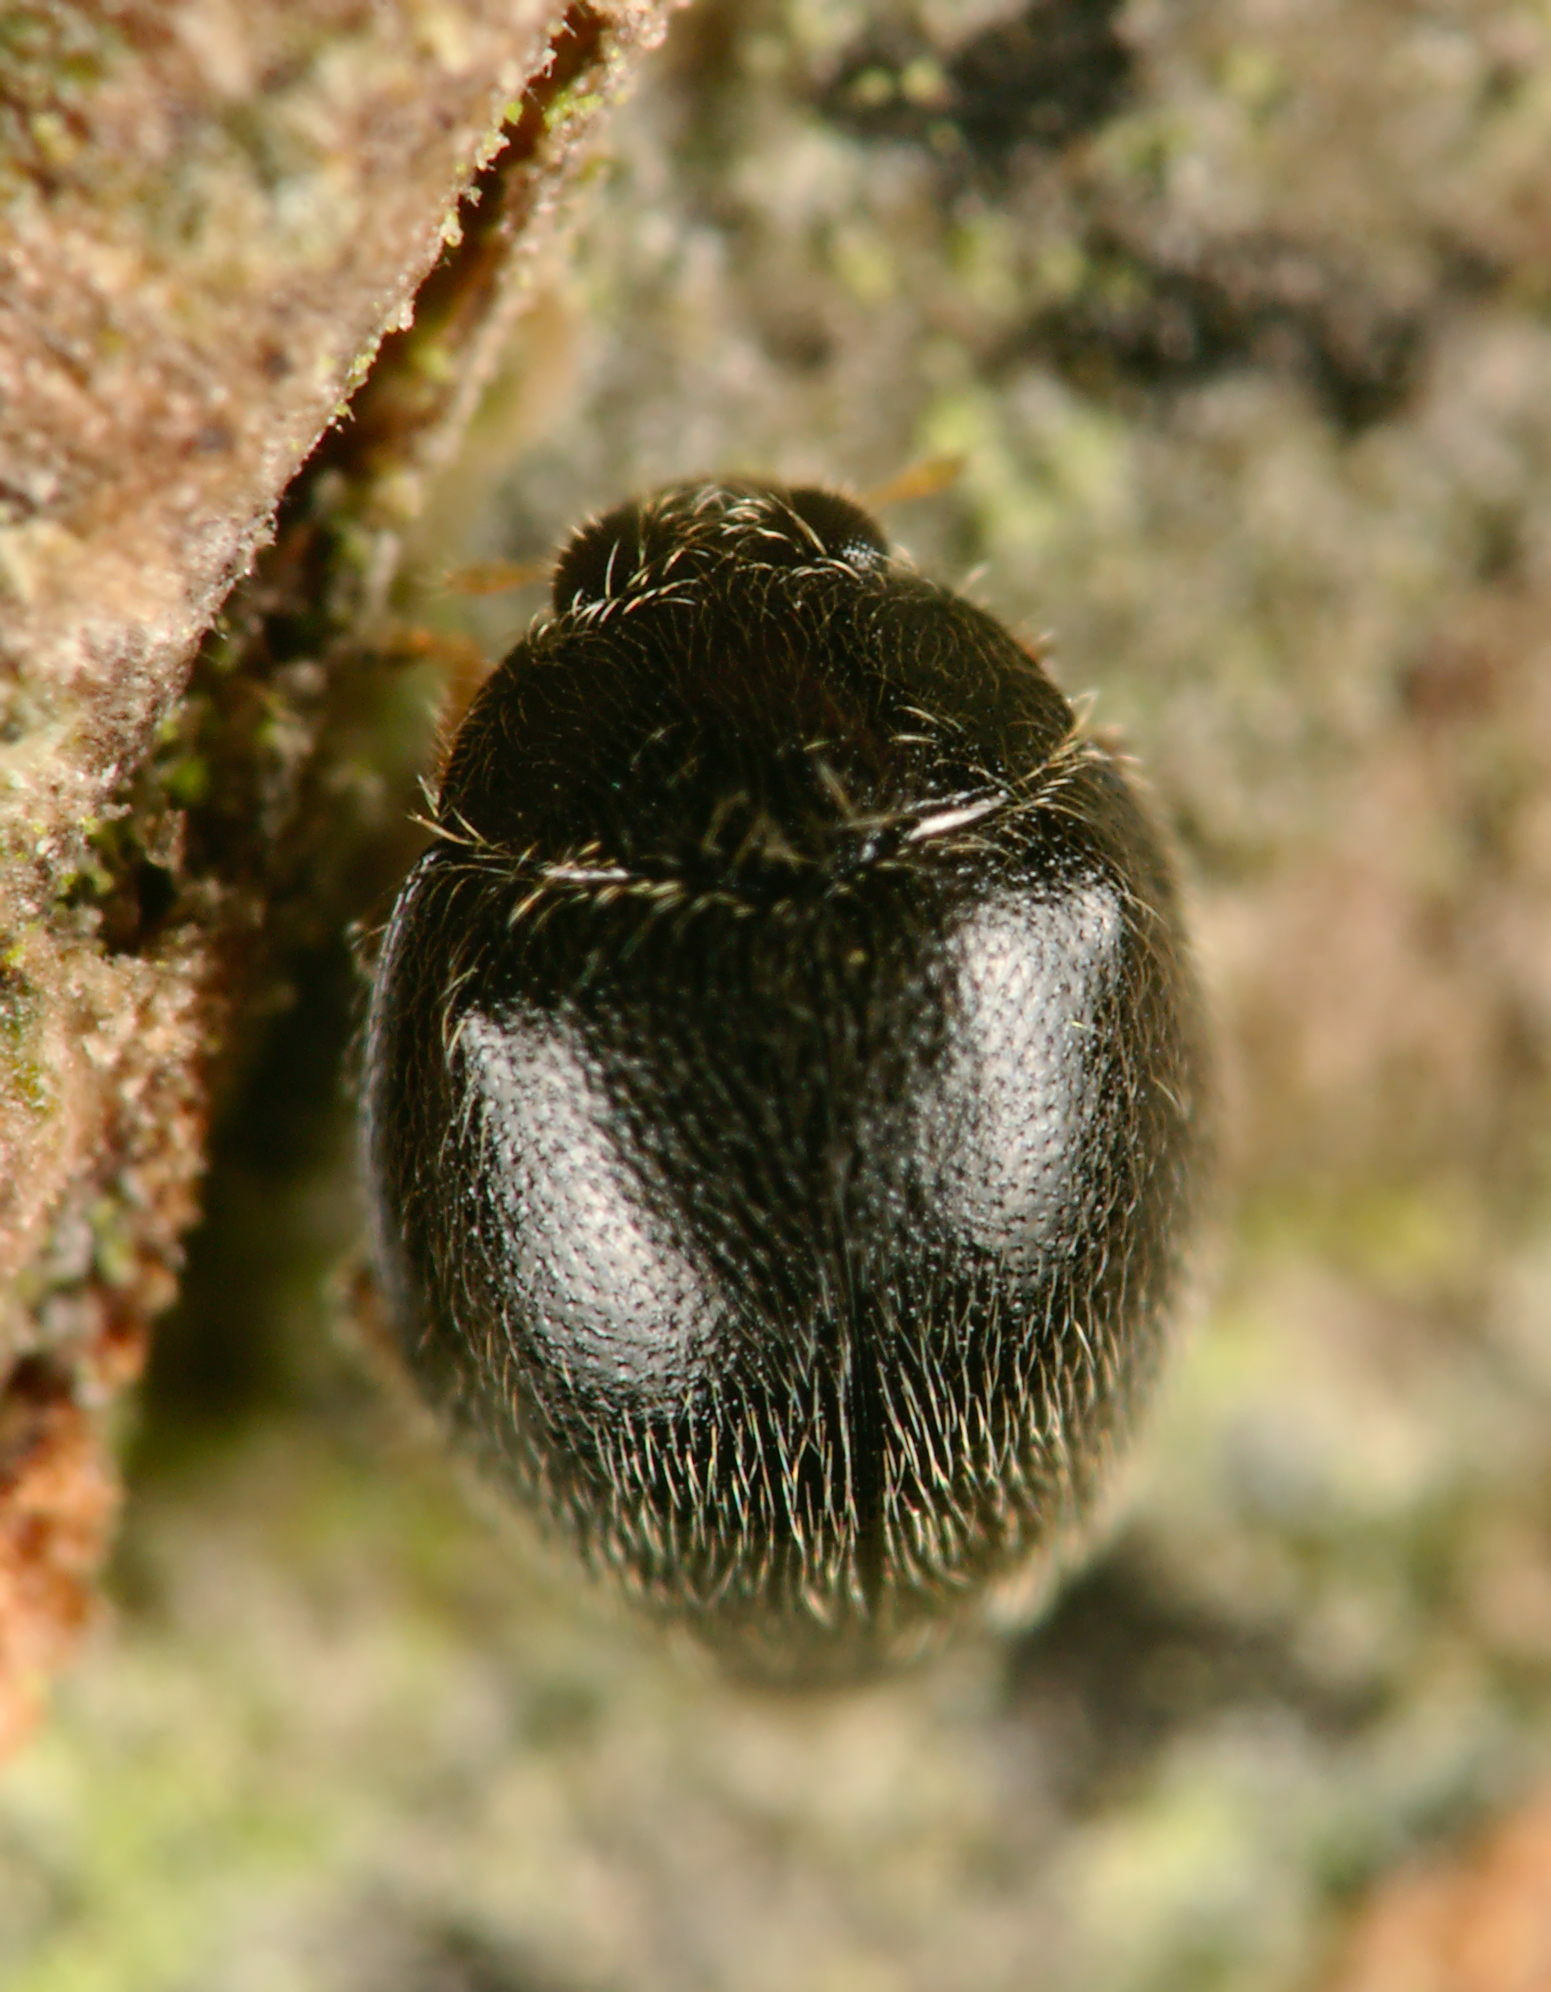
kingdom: Animalia
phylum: Arthropoda
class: Insecta
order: Coleoptera
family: Coccinellidae
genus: Stethorus
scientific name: Stethorus pusillus
